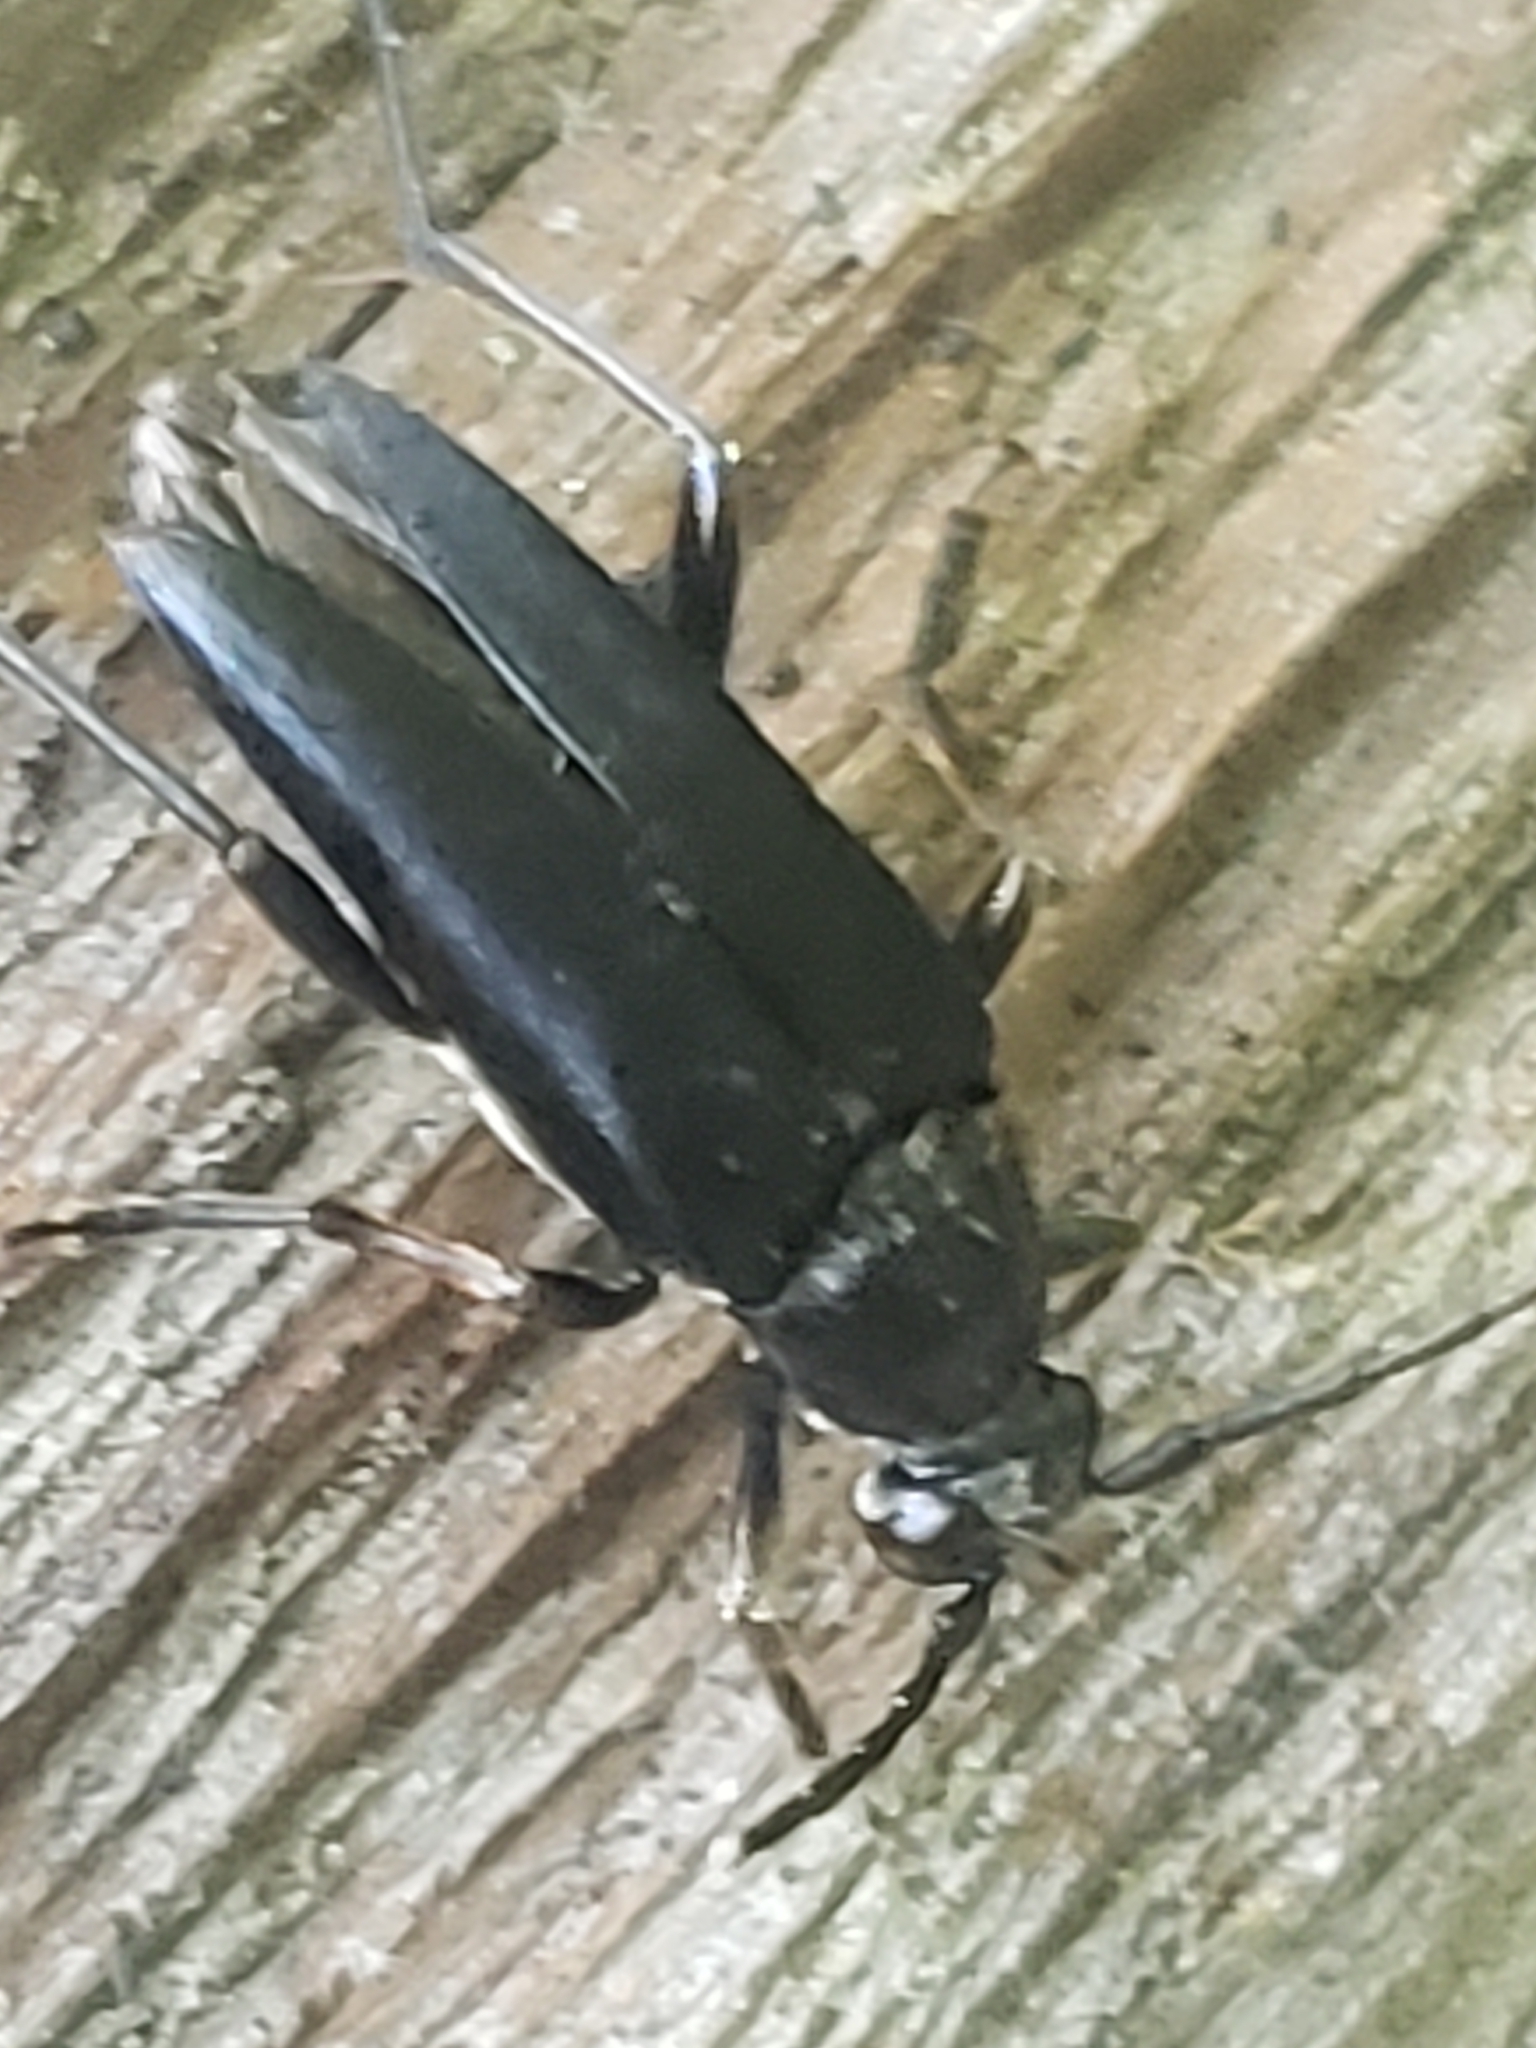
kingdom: Animalia
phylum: Arthropoda
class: Insecta
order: Coleoptera
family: Cerambycidae
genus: Typocerus
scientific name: Typocerus lugubris
